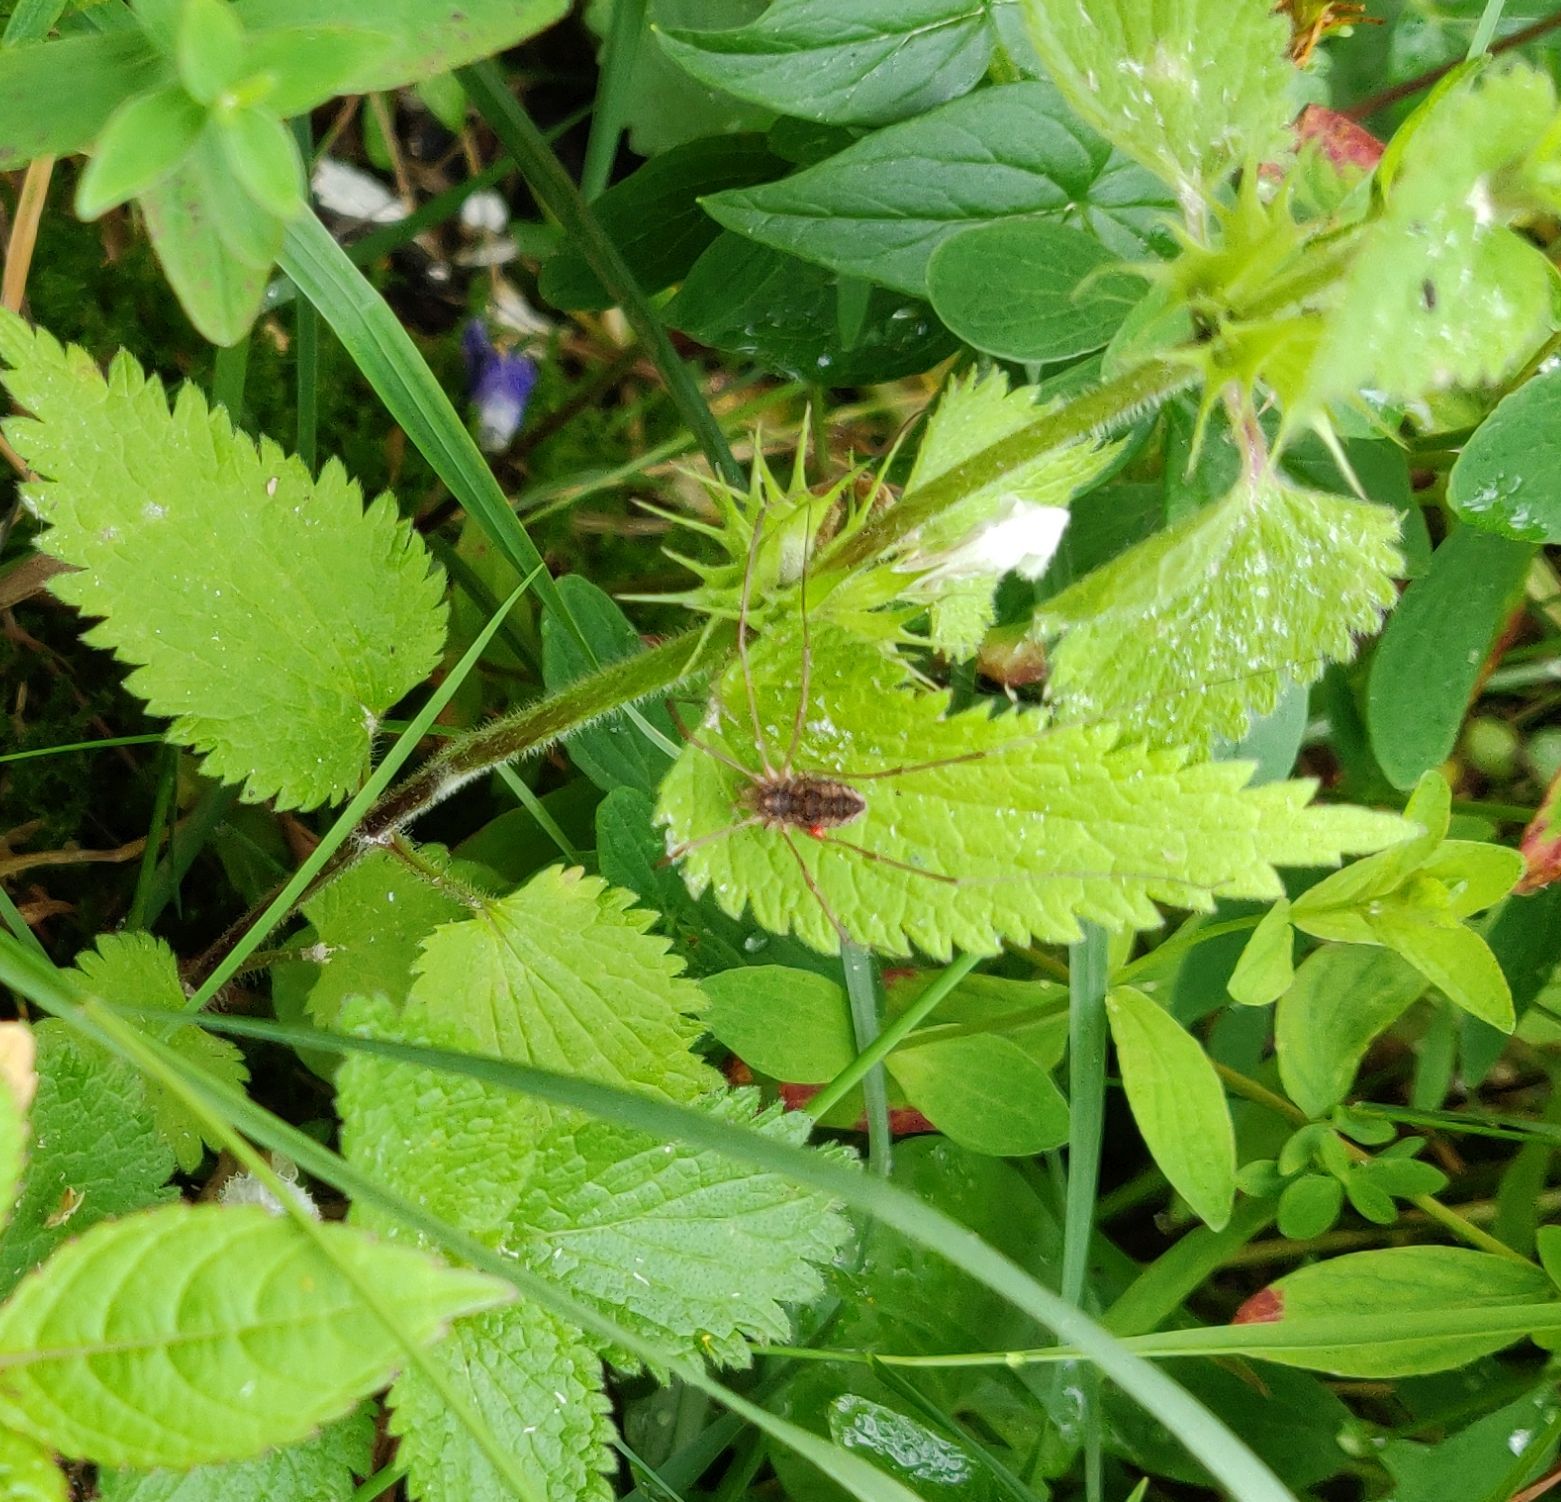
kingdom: Animalia
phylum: Arthropoda
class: Arachnida
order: Opiliones
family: Phalangiidae
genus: Phalangium
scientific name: Phalangium opilio
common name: Daddy longleg
